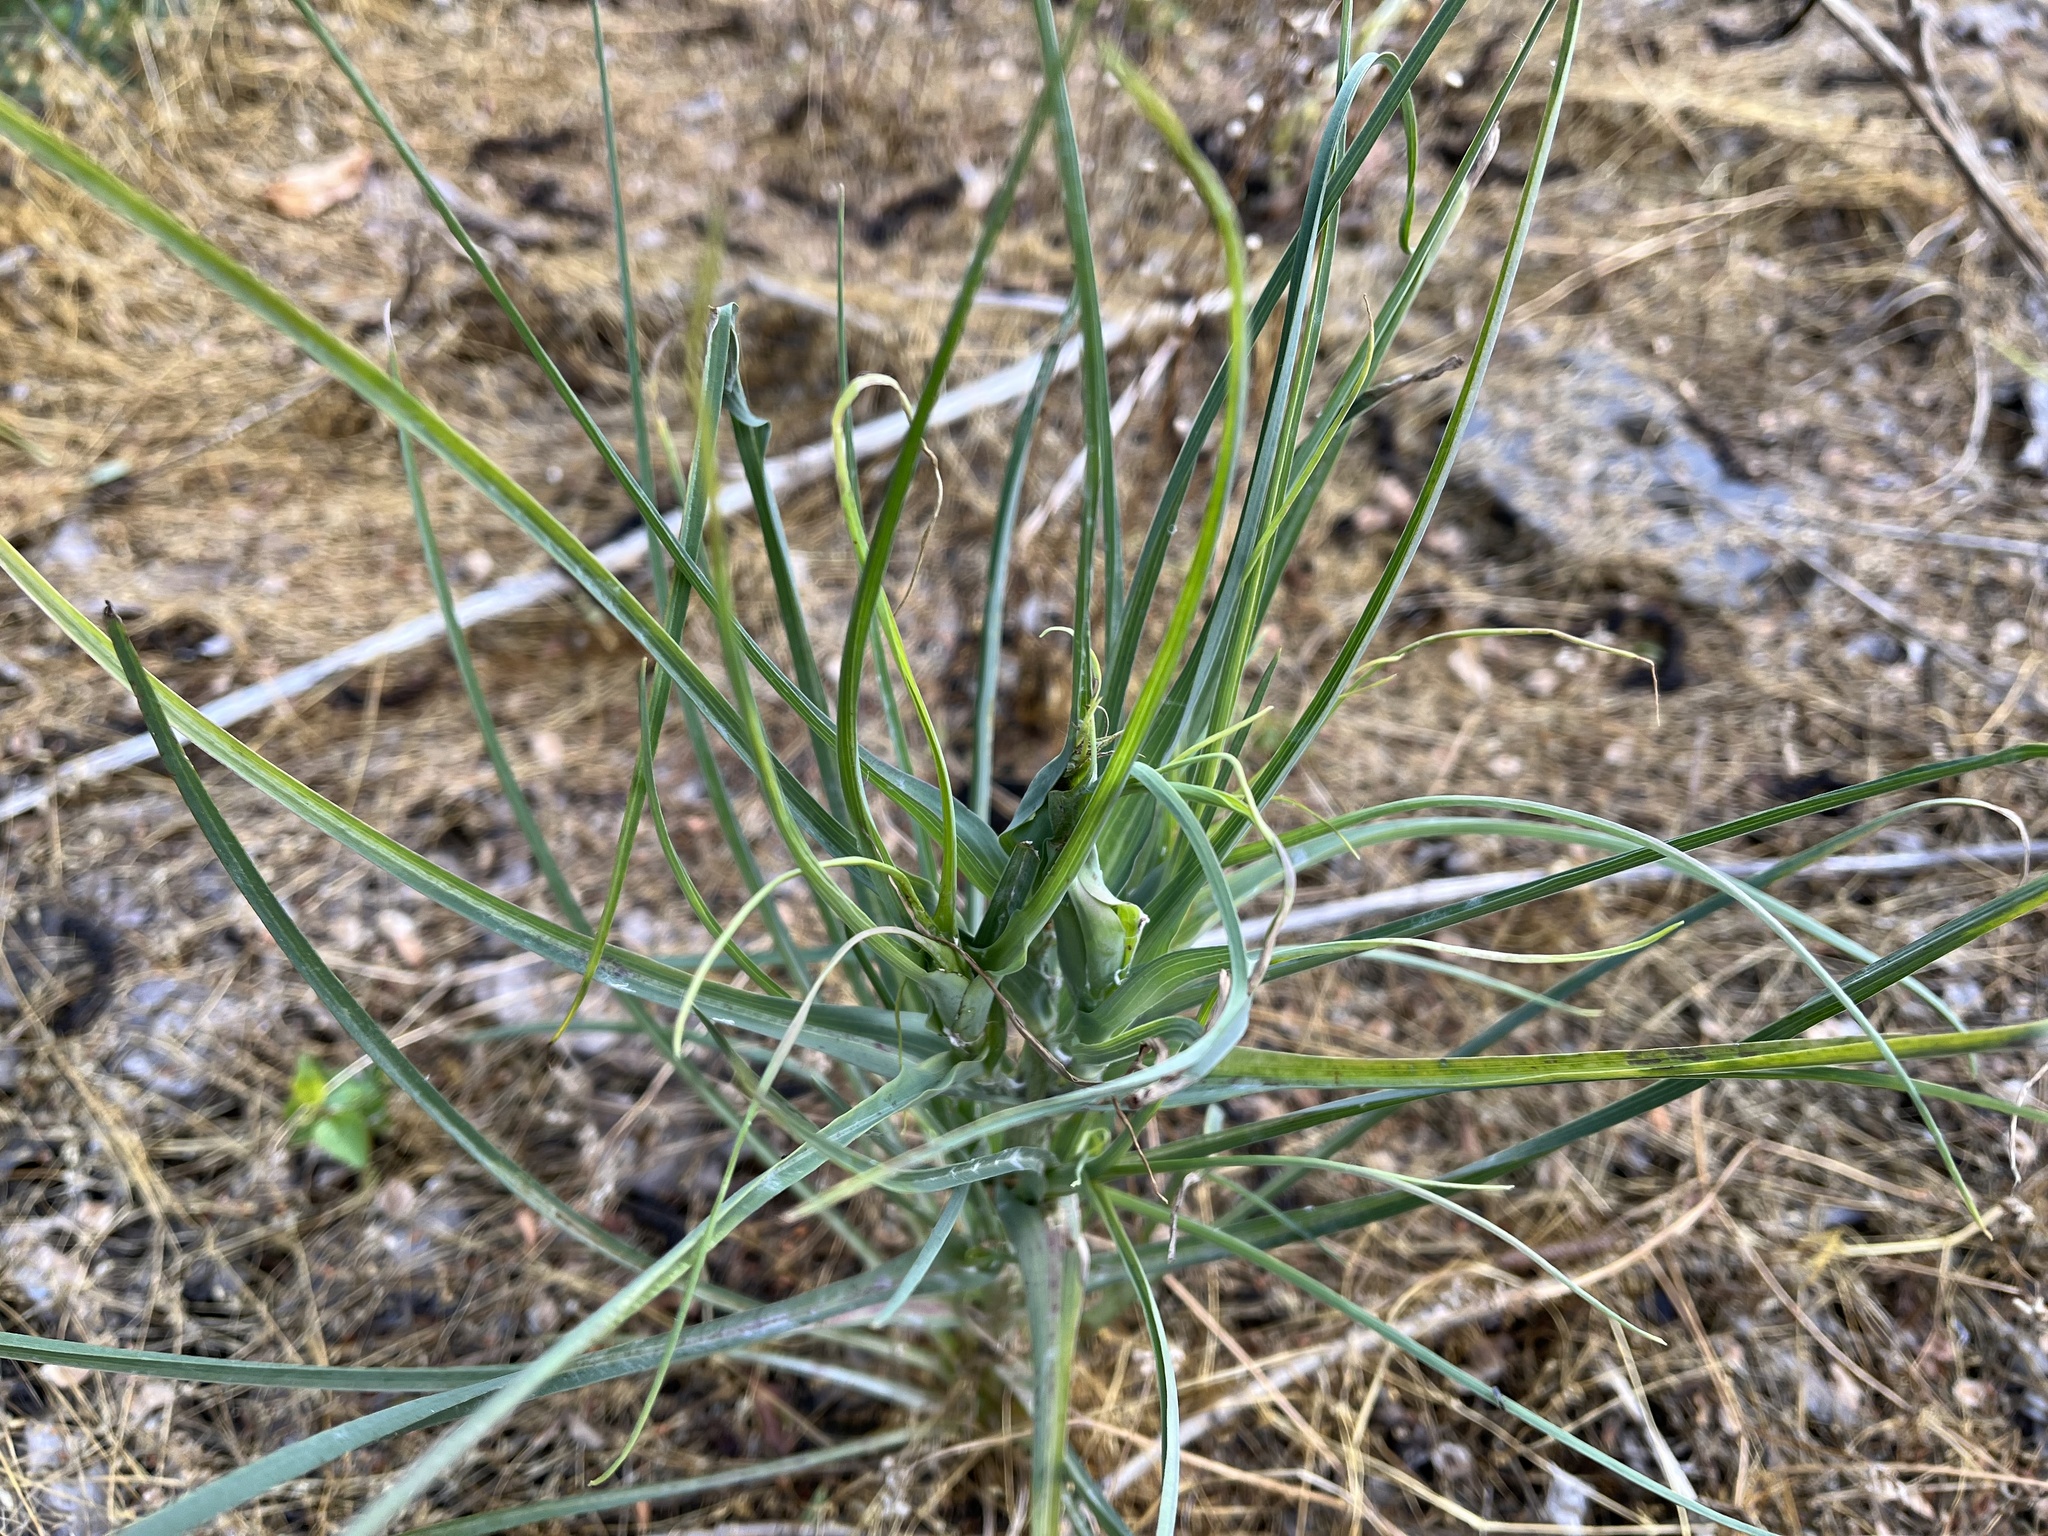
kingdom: Plantae
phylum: Tracheophyta
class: Magnoliopsida
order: Asterales
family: Asteraceae
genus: Tragopogon
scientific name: Tragopogon dubius
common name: Yellow salsify
